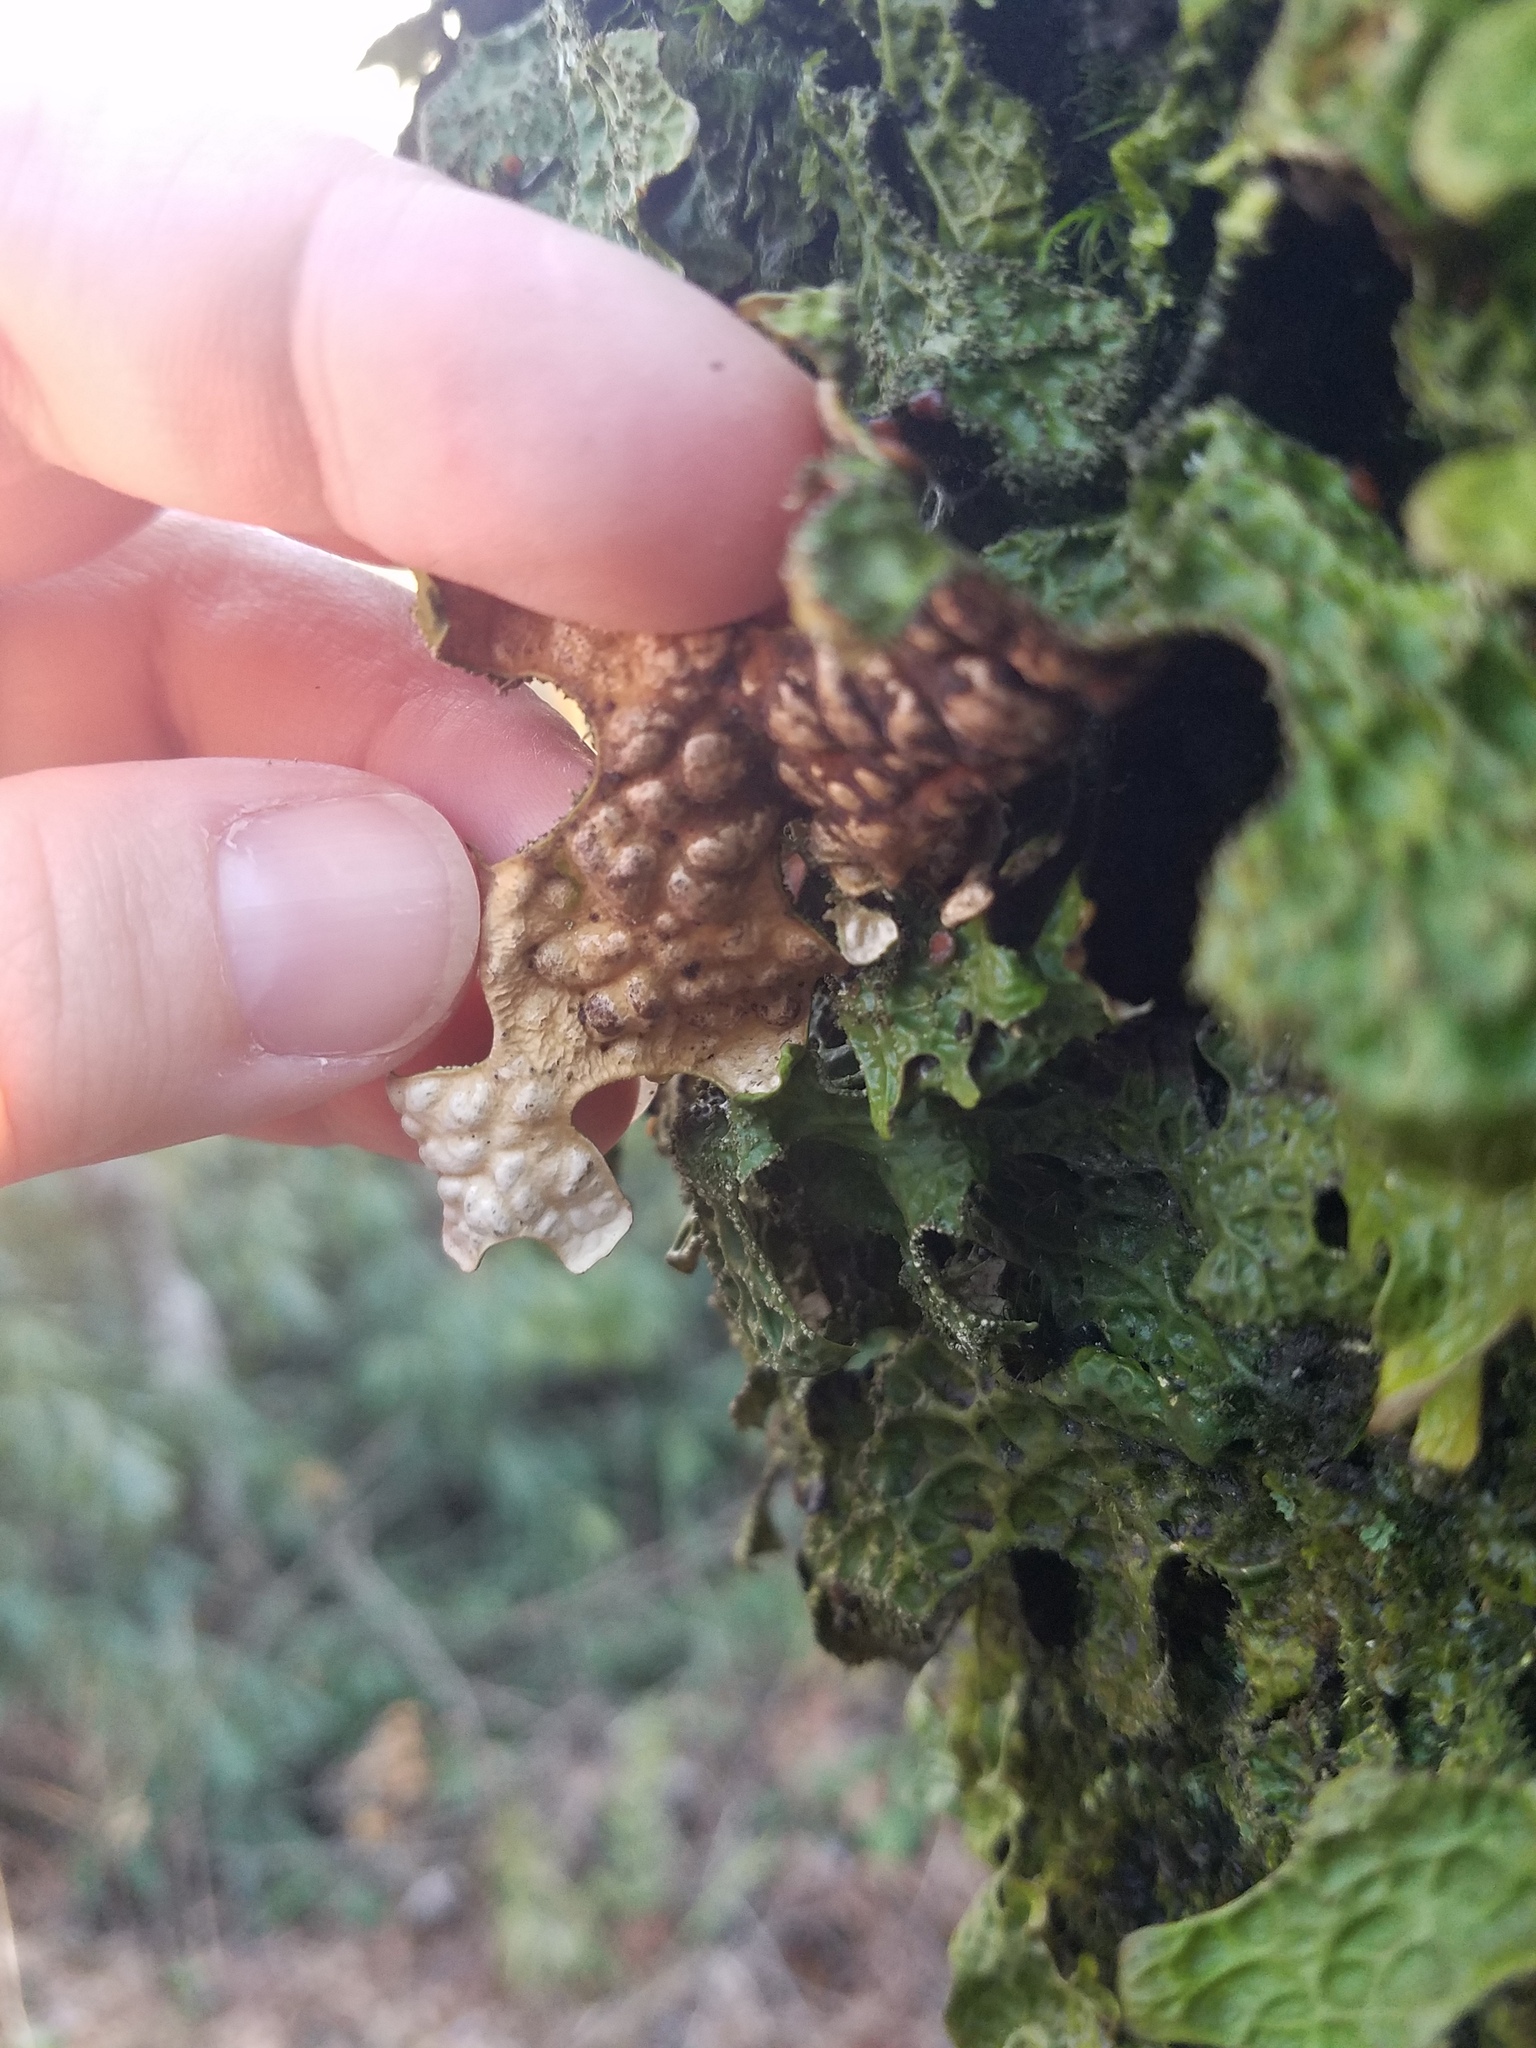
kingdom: Fungi
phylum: Ascomycota
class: Lecanoromycetes
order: Peltigerales
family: Lobariaceae
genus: Lobaria
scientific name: Lobaria pulmonaria
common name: Lungwort
